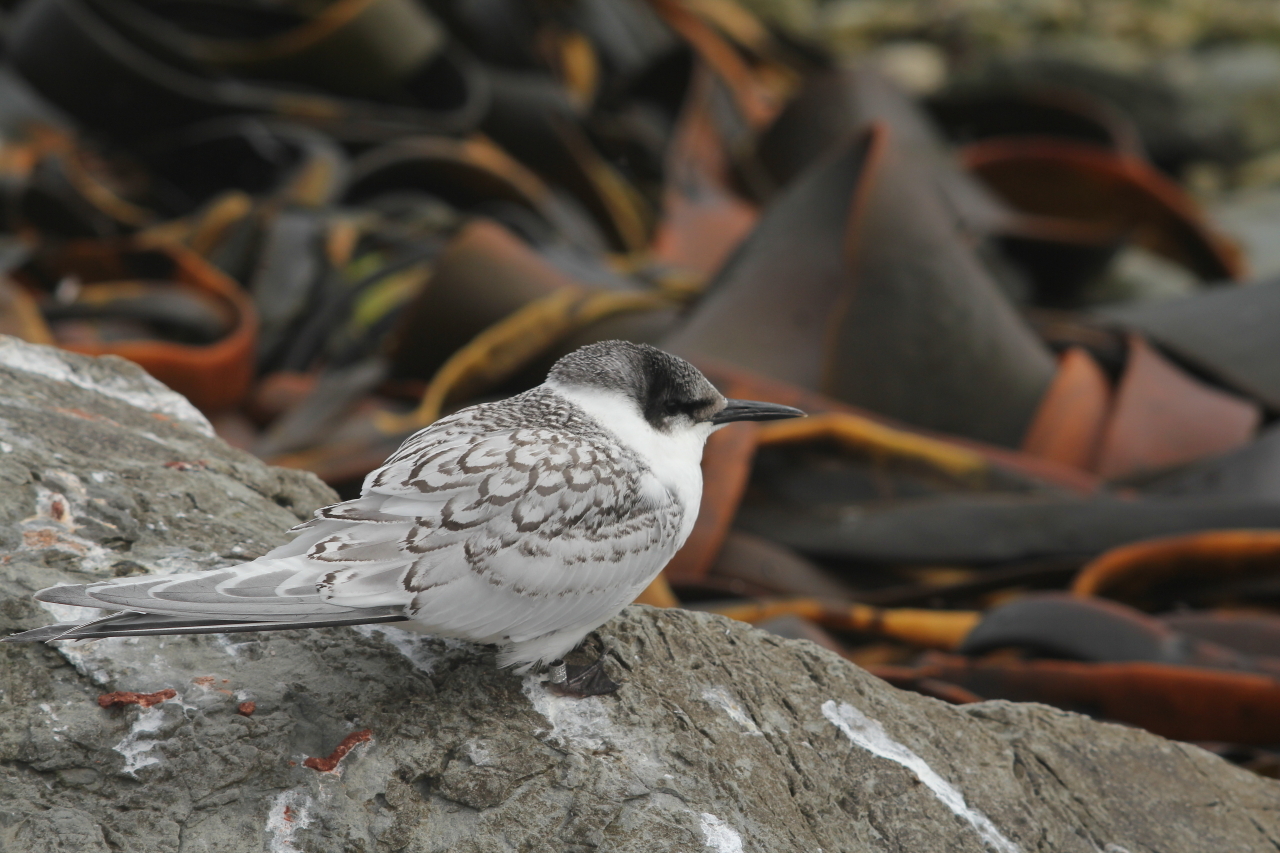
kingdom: Animalia
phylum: Chordata
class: Aves
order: Charadriiformes
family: Laridae
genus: Sterna
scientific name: Sterna striata
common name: White-fronted tern
